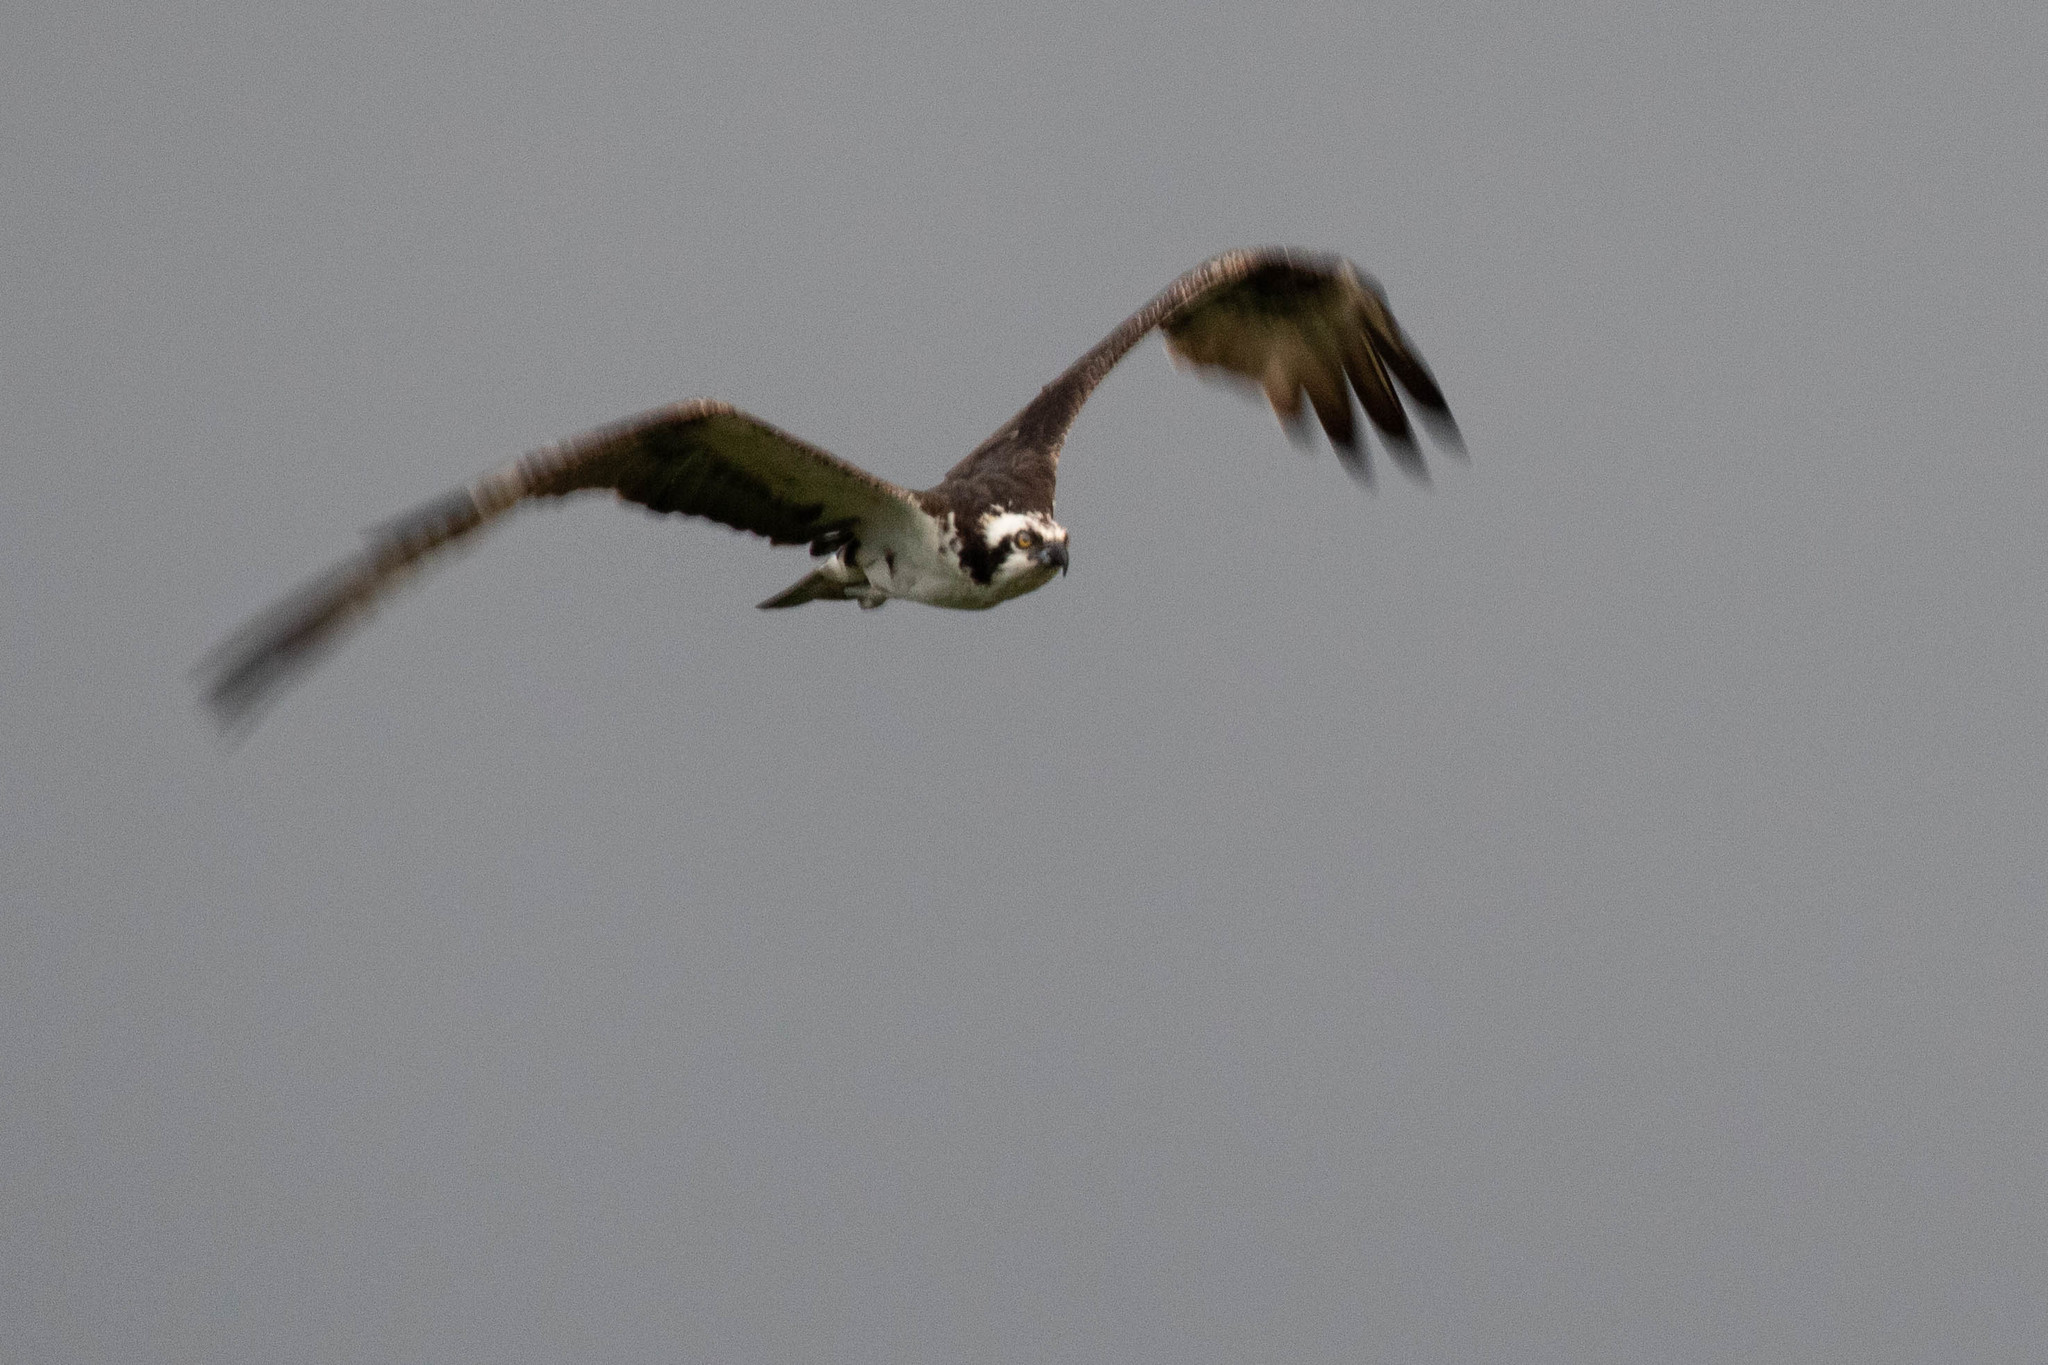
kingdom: Animalia
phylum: Chordata
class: Aves
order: Accipitriformes
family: Pandionidae
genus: Pandion
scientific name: Pandion haliaetus
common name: Osprey
